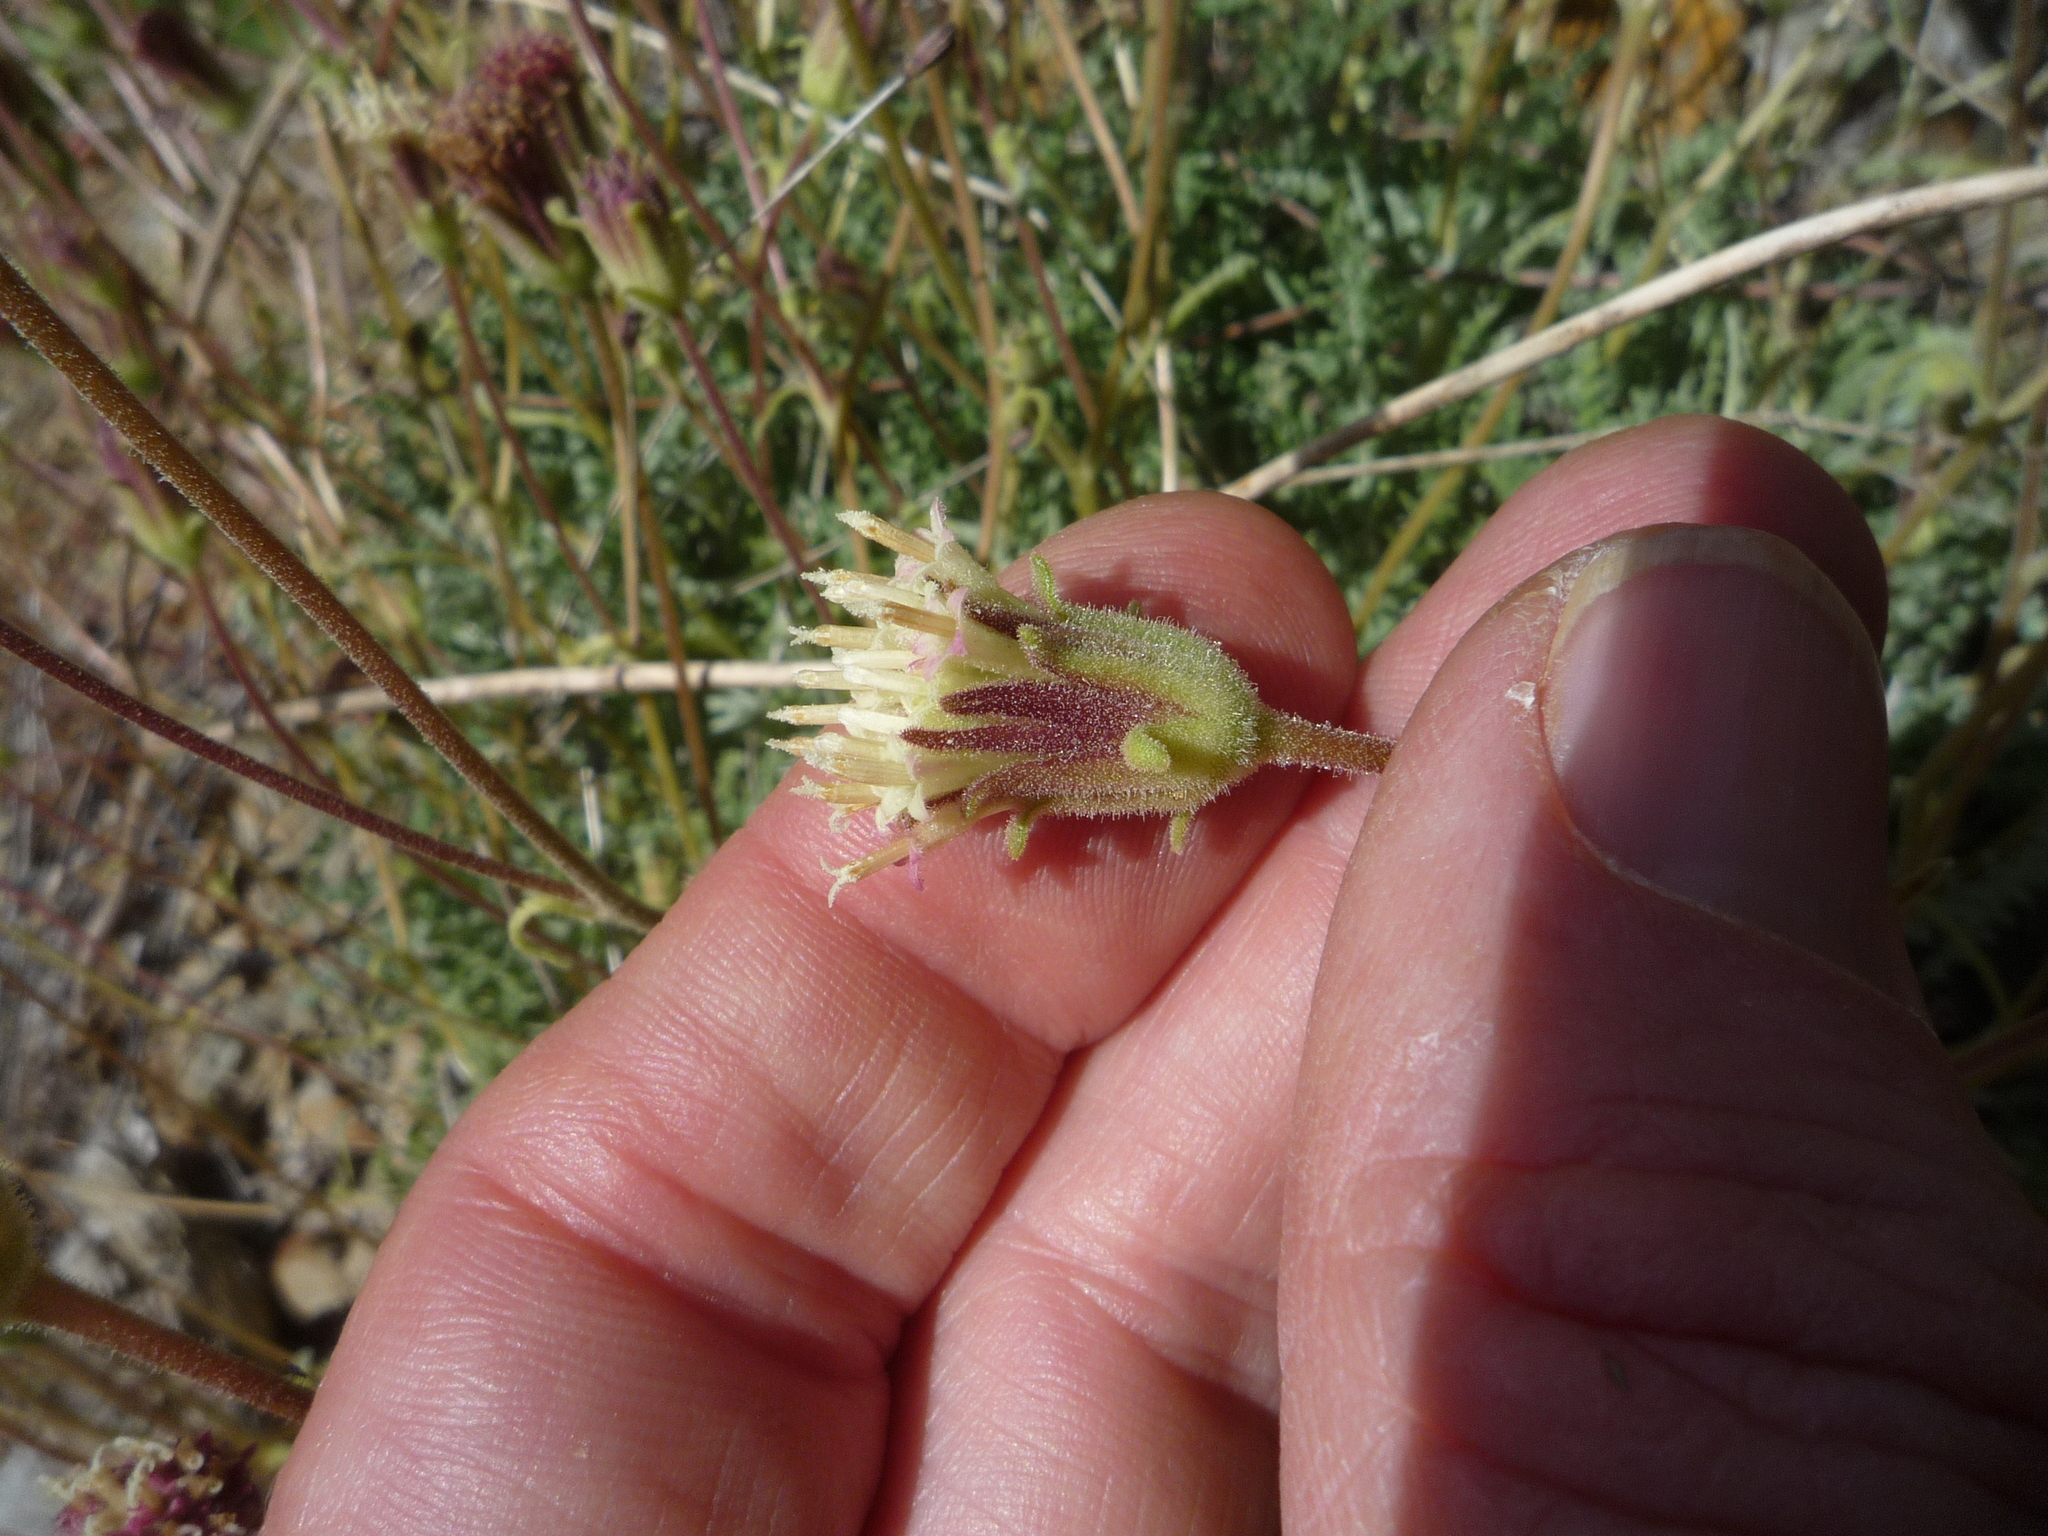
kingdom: Plantae
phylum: Tracheophyta
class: Magnoliopsida
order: Asterales
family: Asteraceae
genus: Chaenactis
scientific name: Chaenactis santolinoides
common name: Santolina pincushion
